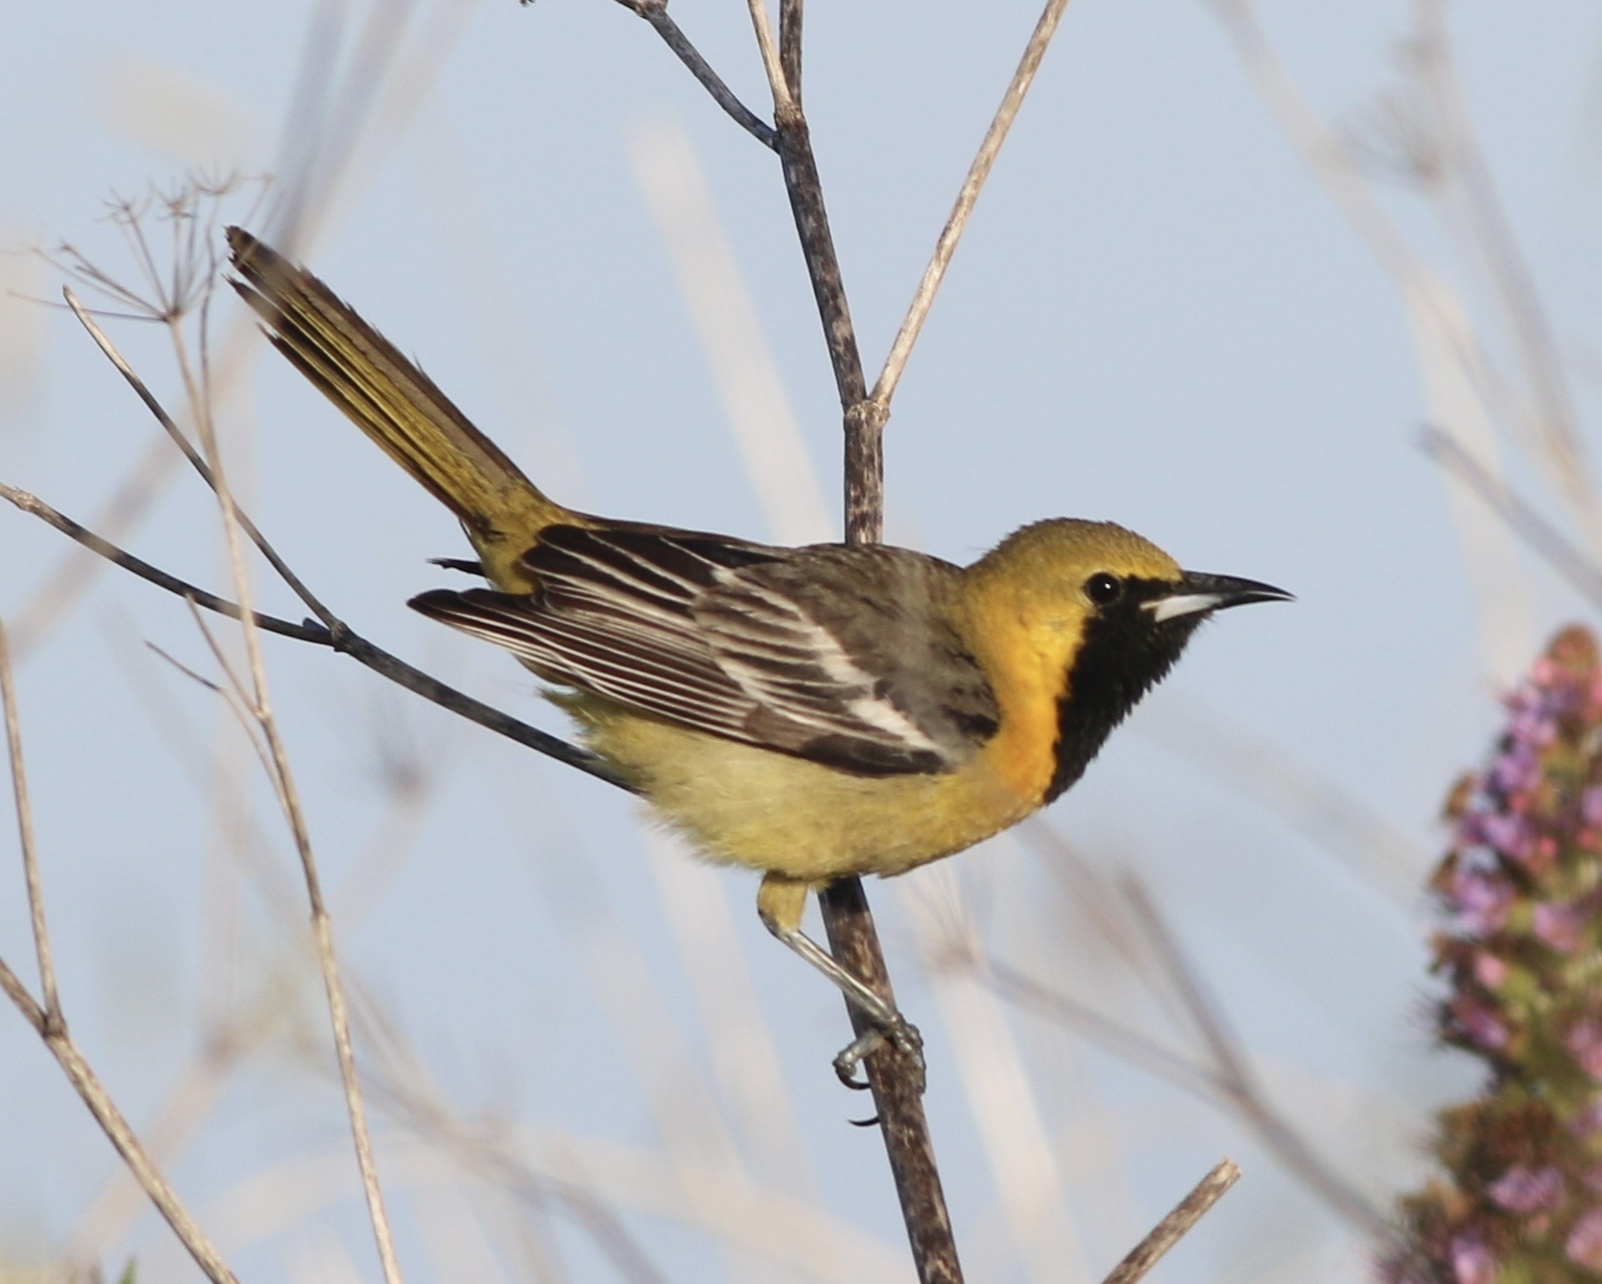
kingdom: Animalia
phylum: Chordata
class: Aves
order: Passeriformes
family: Icteridae
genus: Icterus
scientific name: Icterus cucullatus
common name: Hooded oriole
